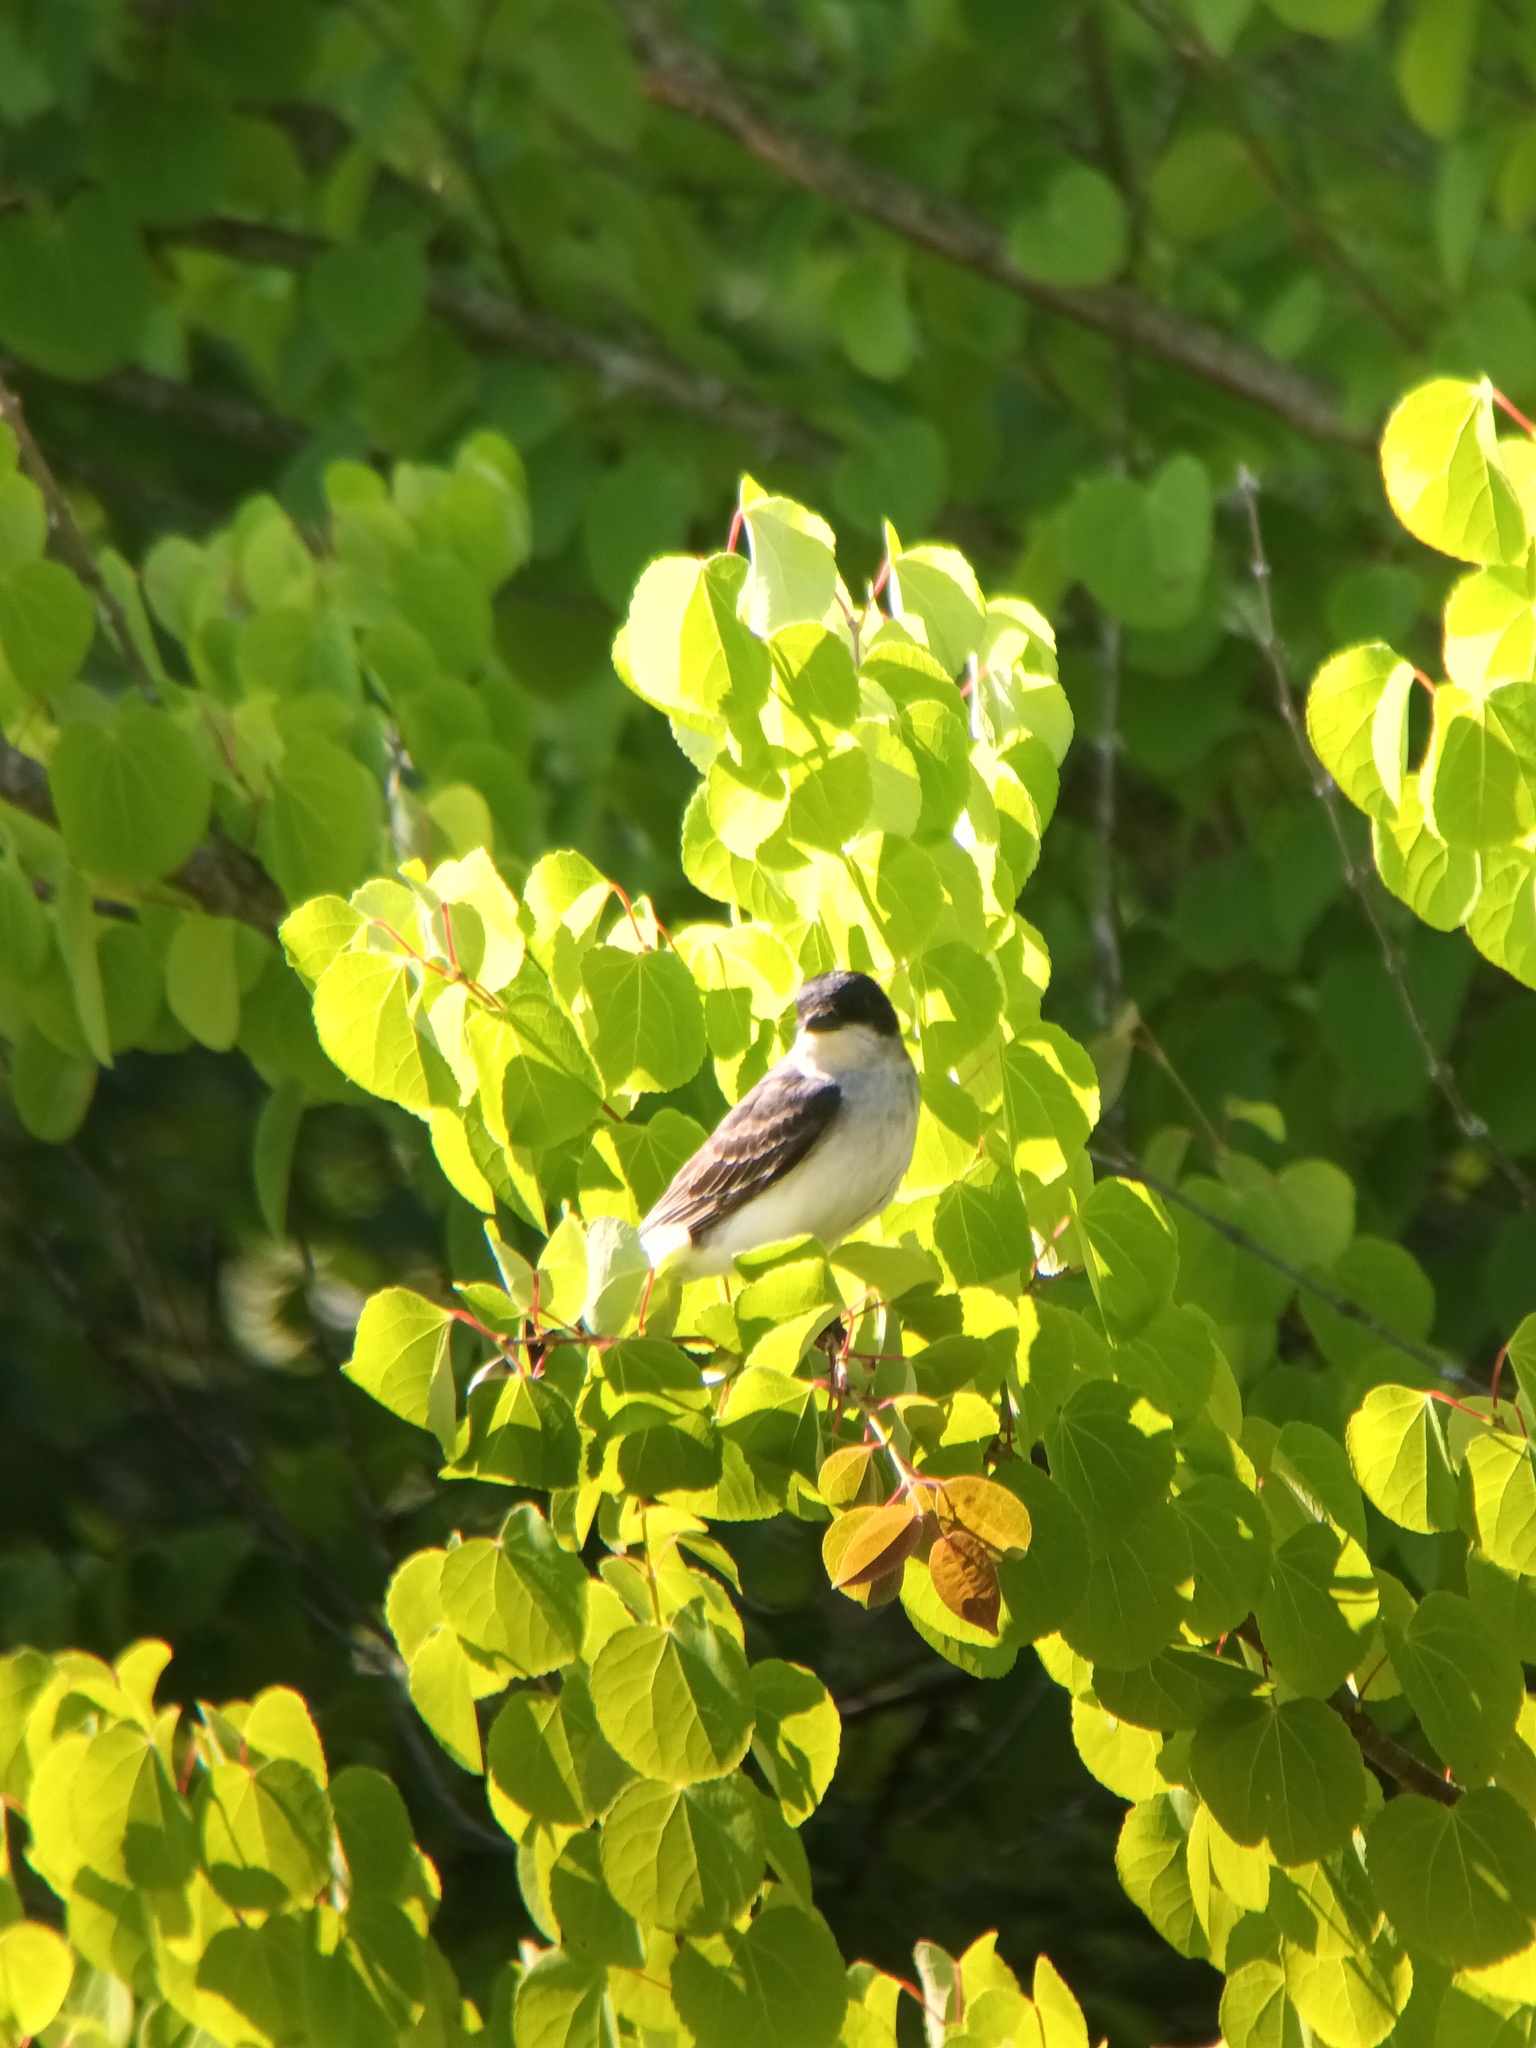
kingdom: Animalia
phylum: Chordata
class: Aves
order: Passeriformes
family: Tyrannidae
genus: Tyrannus
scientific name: Tyrannus tyrannus
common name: Eastern kingbird
